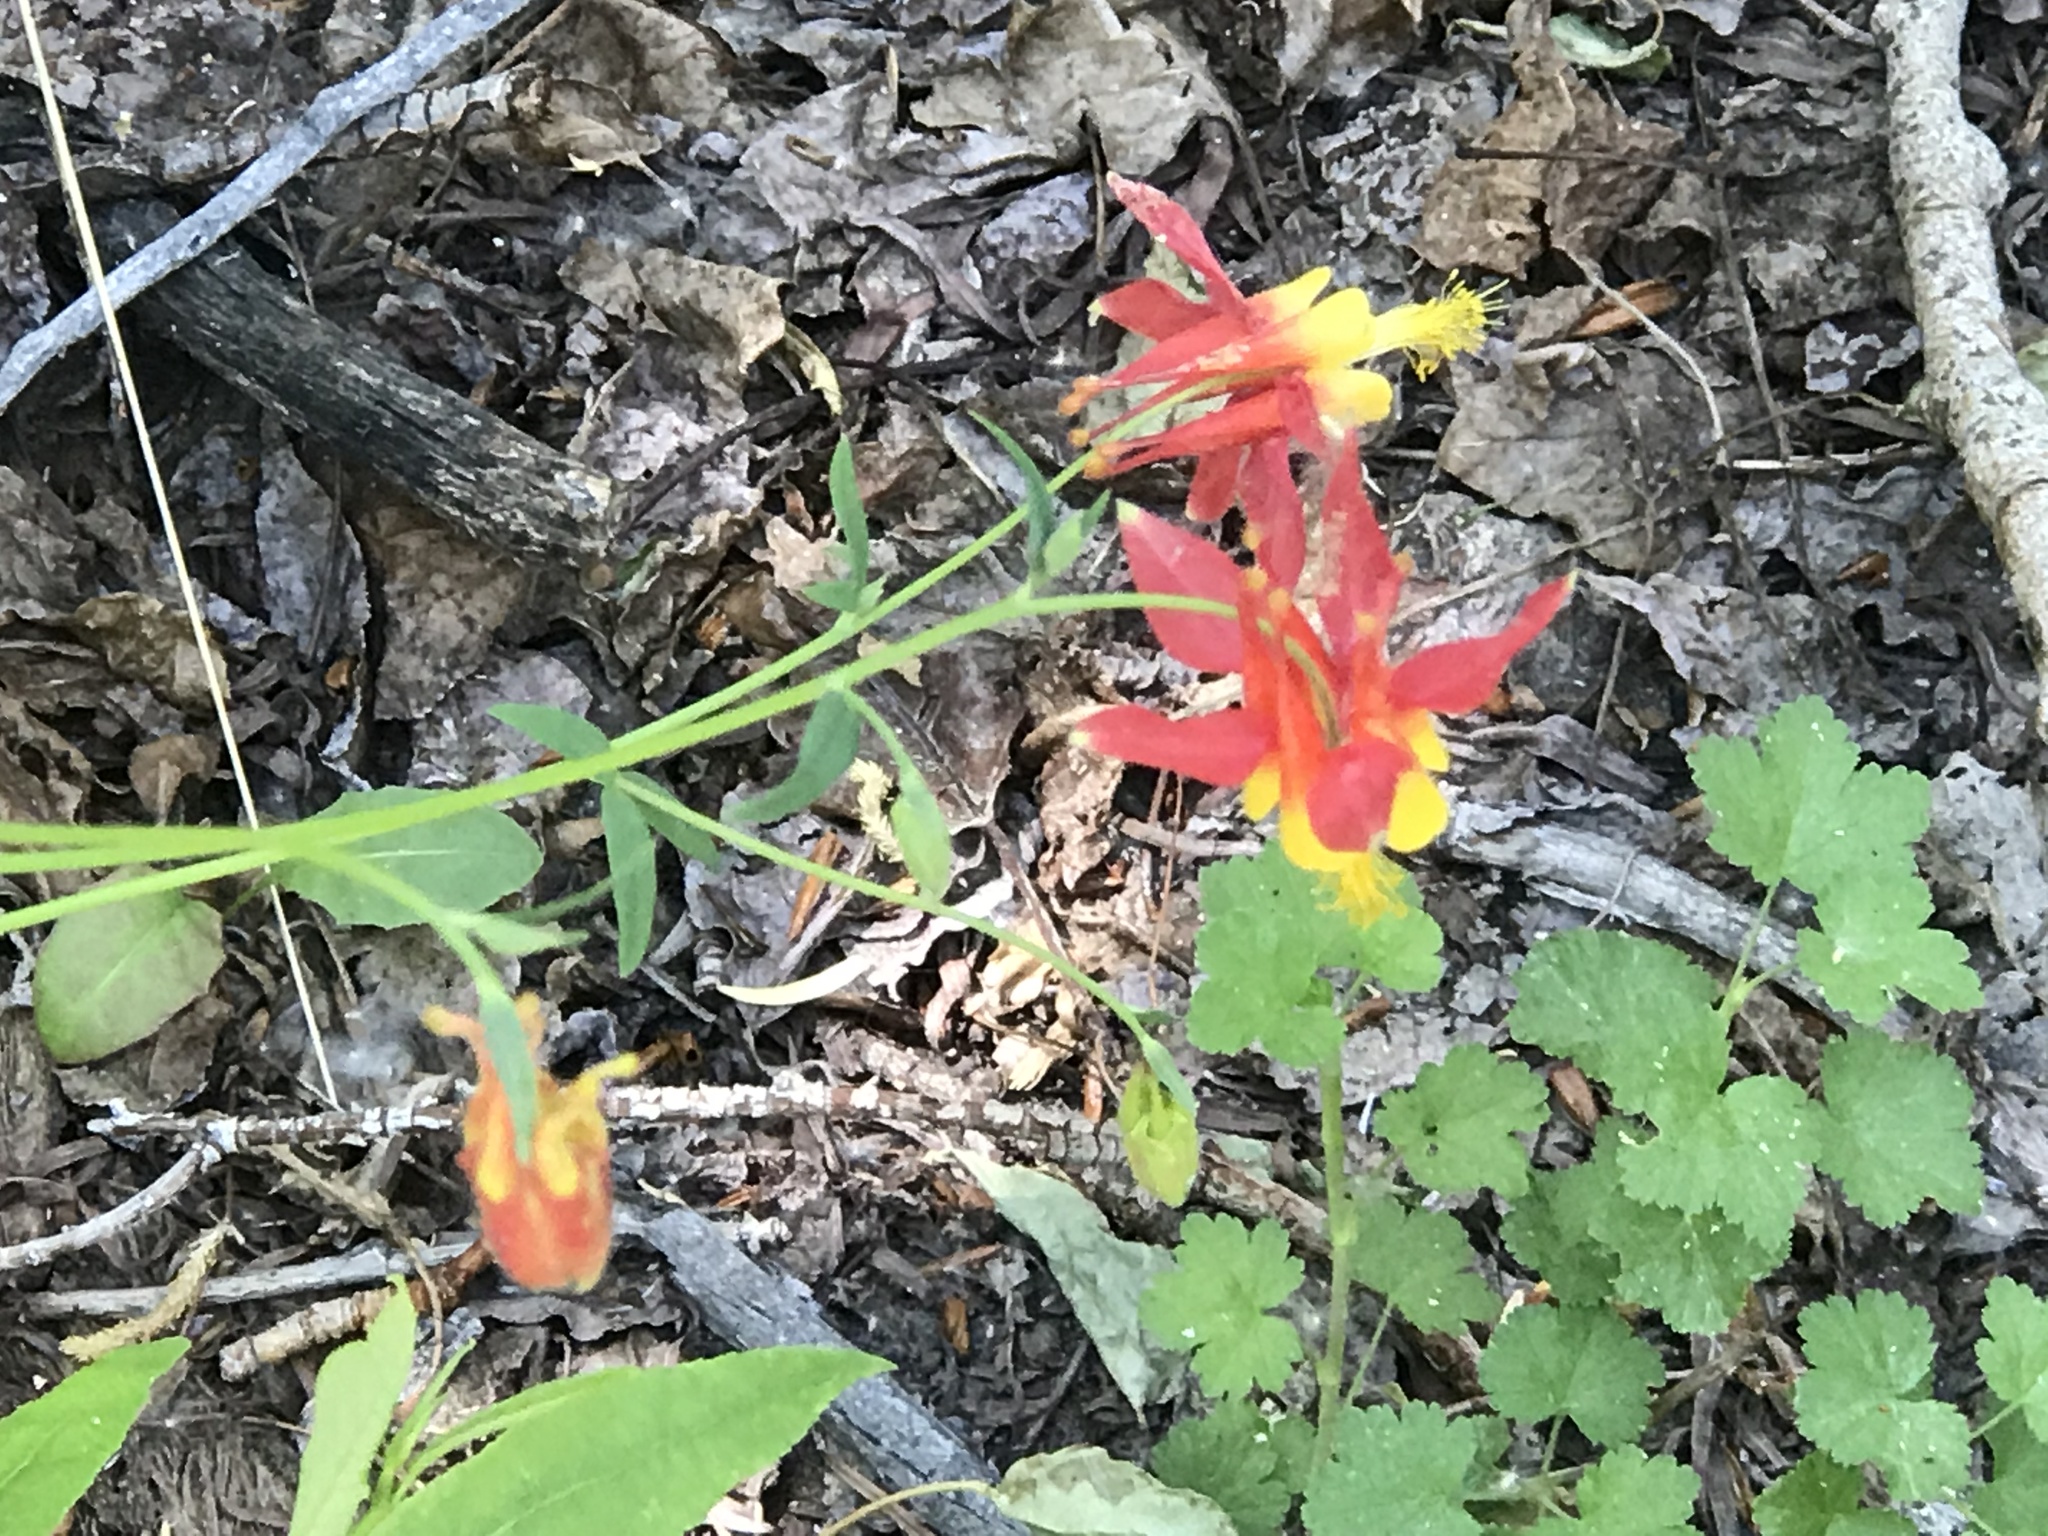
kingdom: Plantae
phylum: Tracheophyta
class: Magnoliopsida
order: Ranunculales
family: Ranunculaceae
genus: Aquilegia
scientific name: Aquilegia formosa
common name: Sitka columbine
